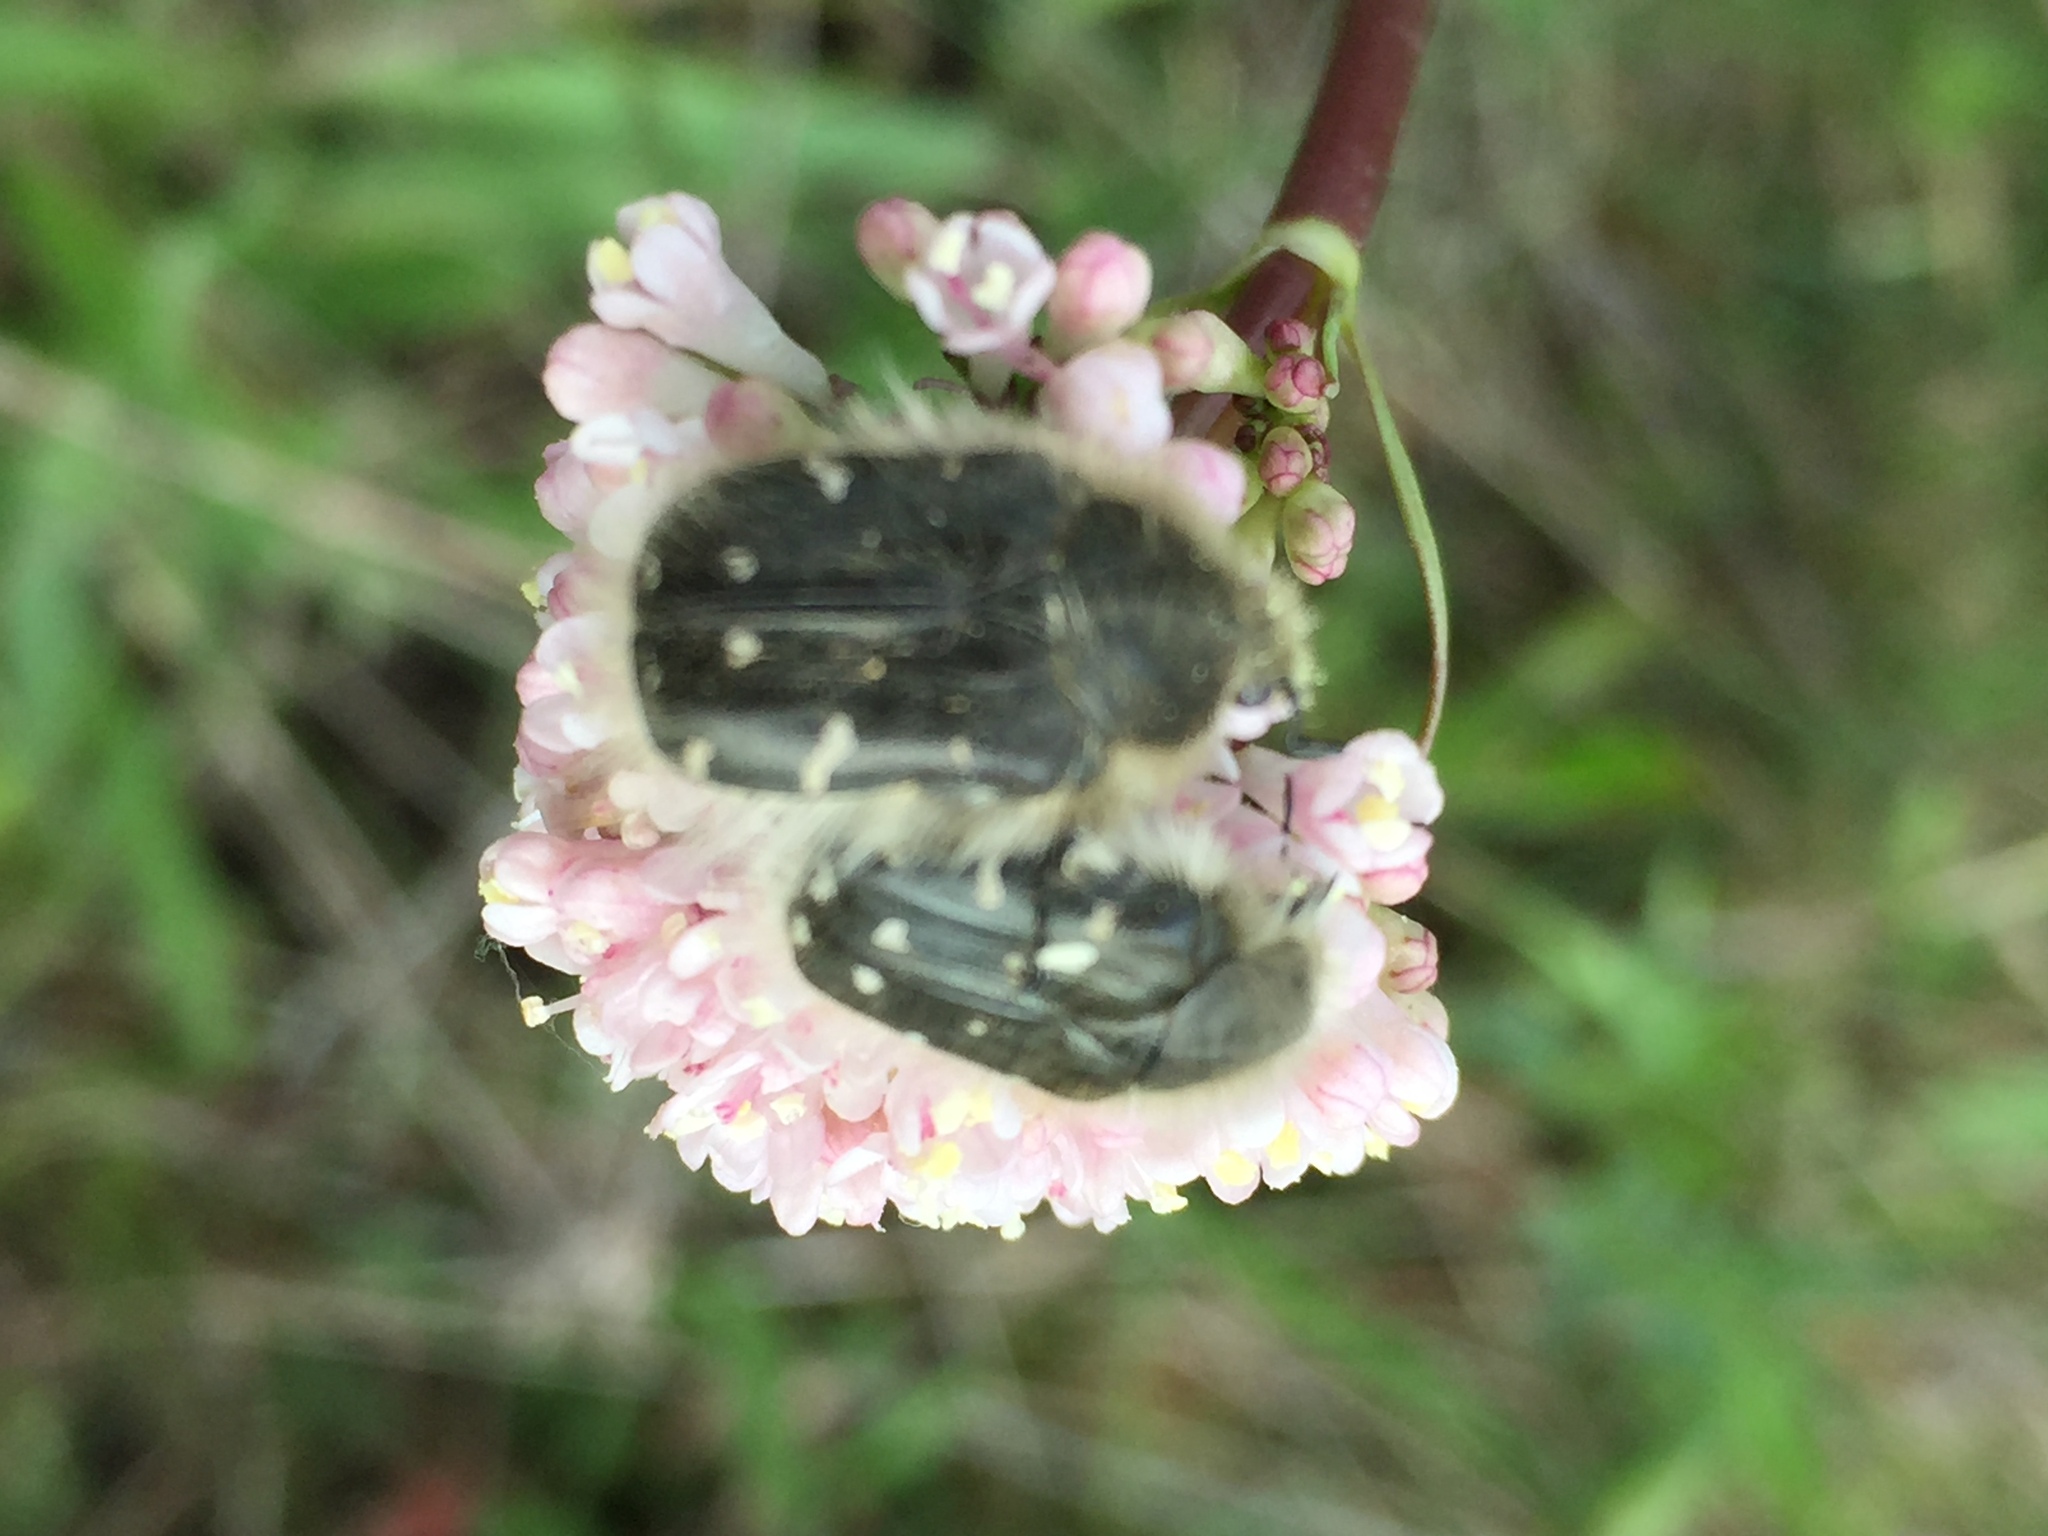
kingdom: Animalia
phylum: Arthropoda
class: Insecta
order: Coleoptera
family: Scarabaeidae
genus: Tropinota
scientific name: Tropinota hirta
